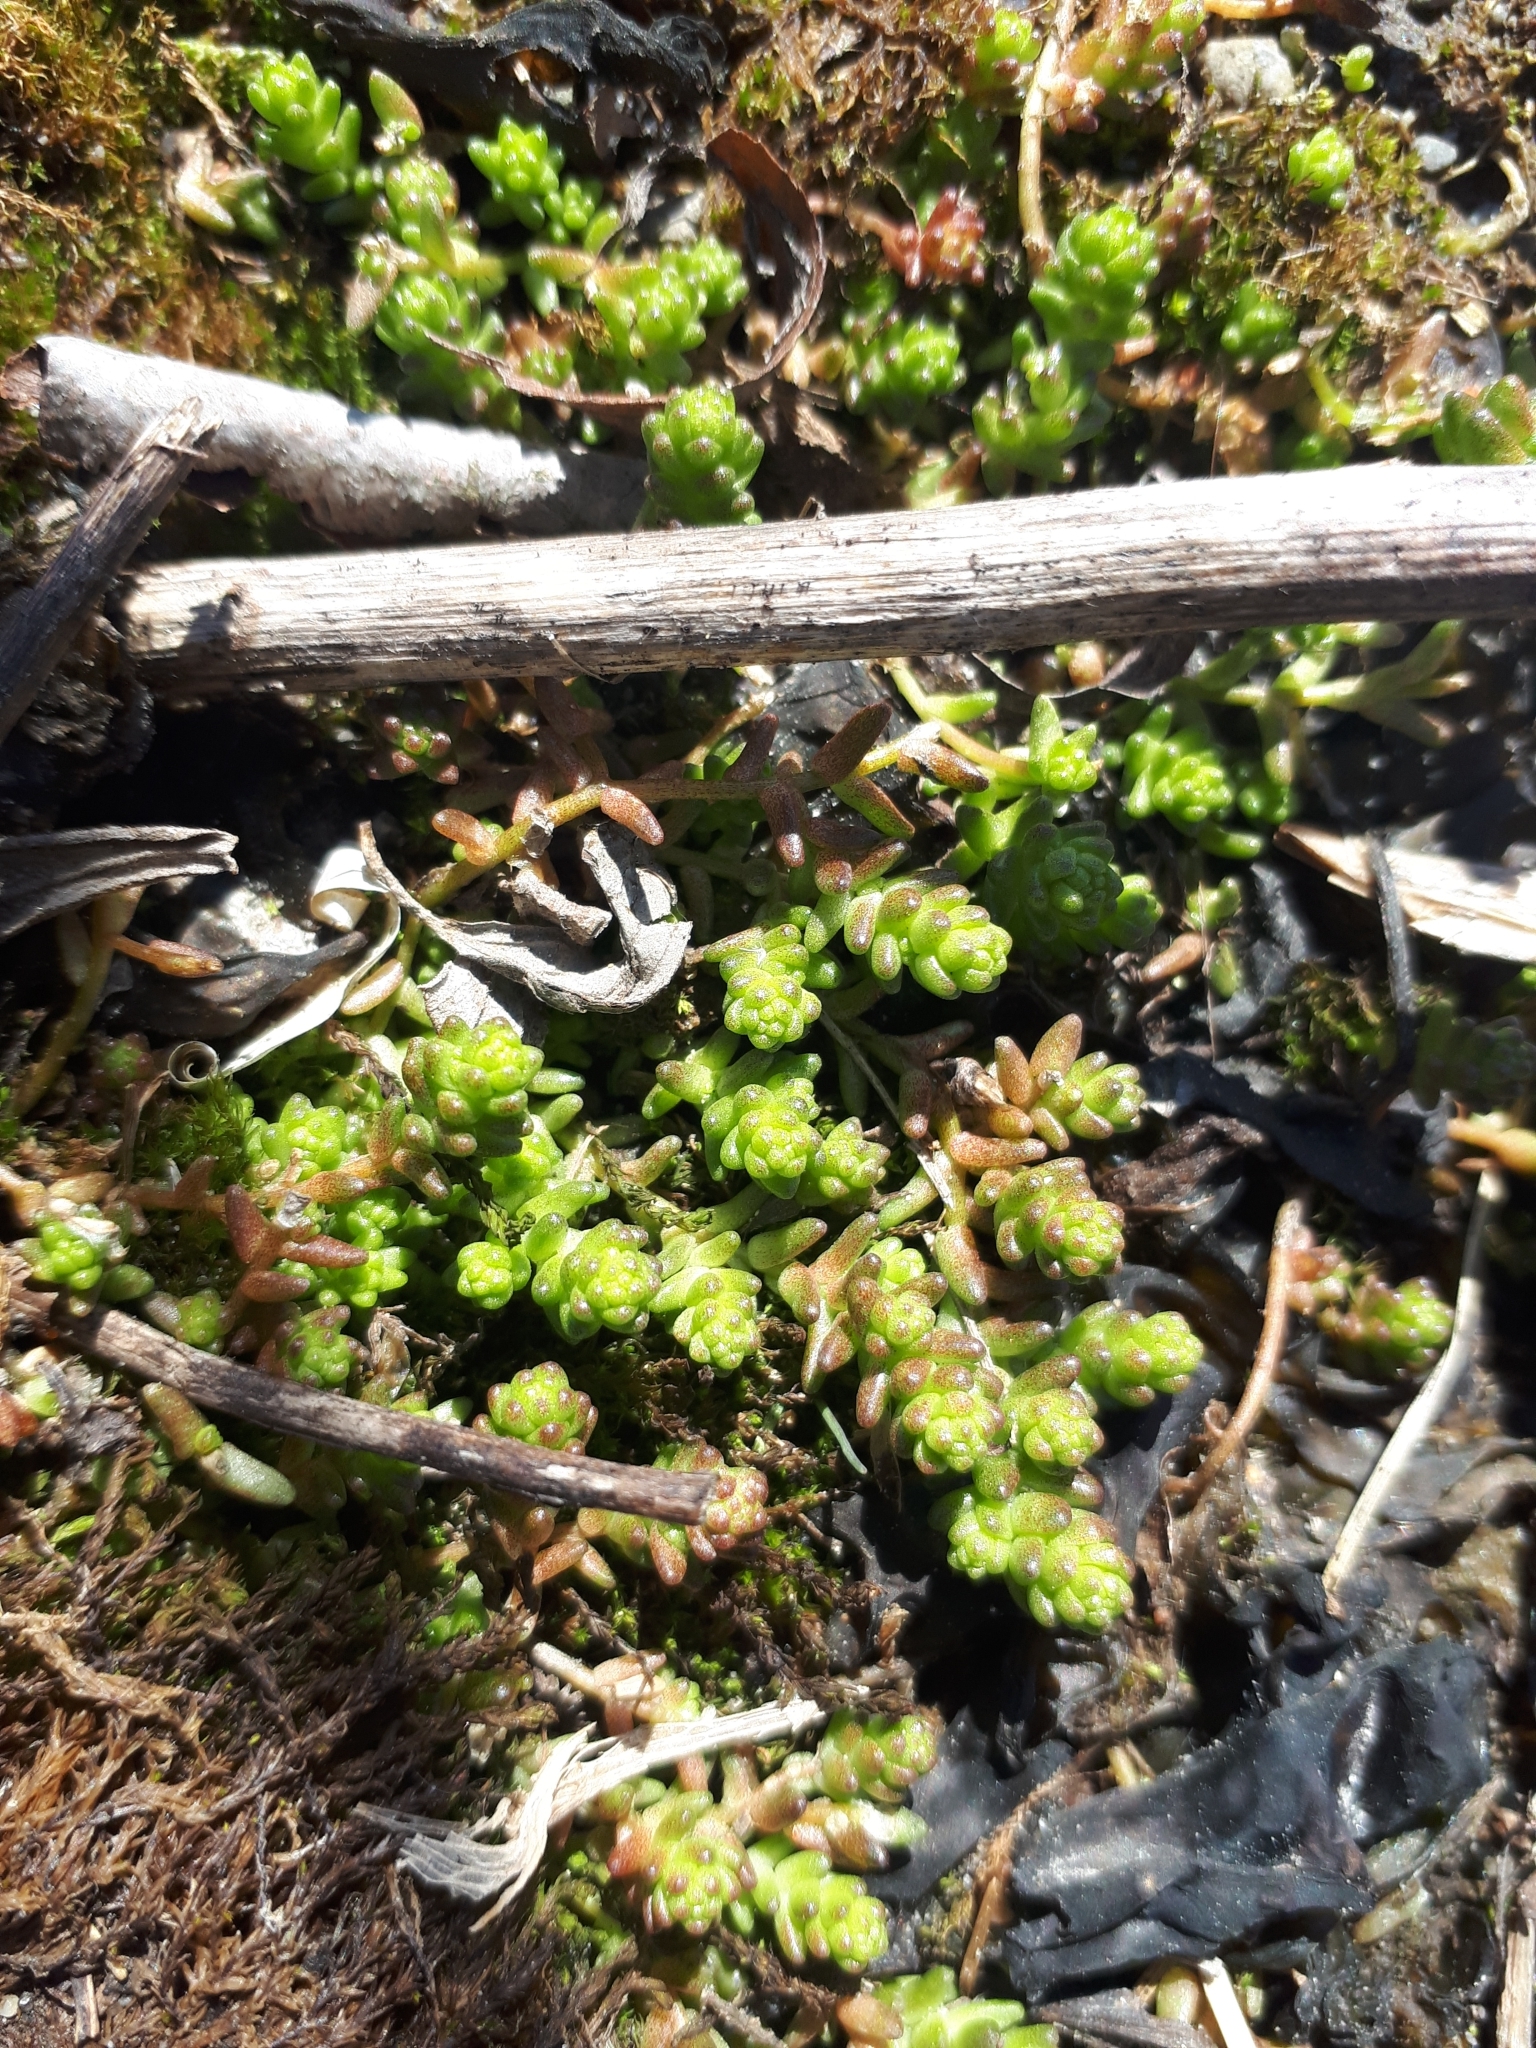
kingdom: Plantae
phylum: Tracheophyta
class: Magnoliopsida
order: Saxifragales
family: Crassulaceae
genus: Sedum
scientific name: Sedum acre
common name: Biting stonecrop
